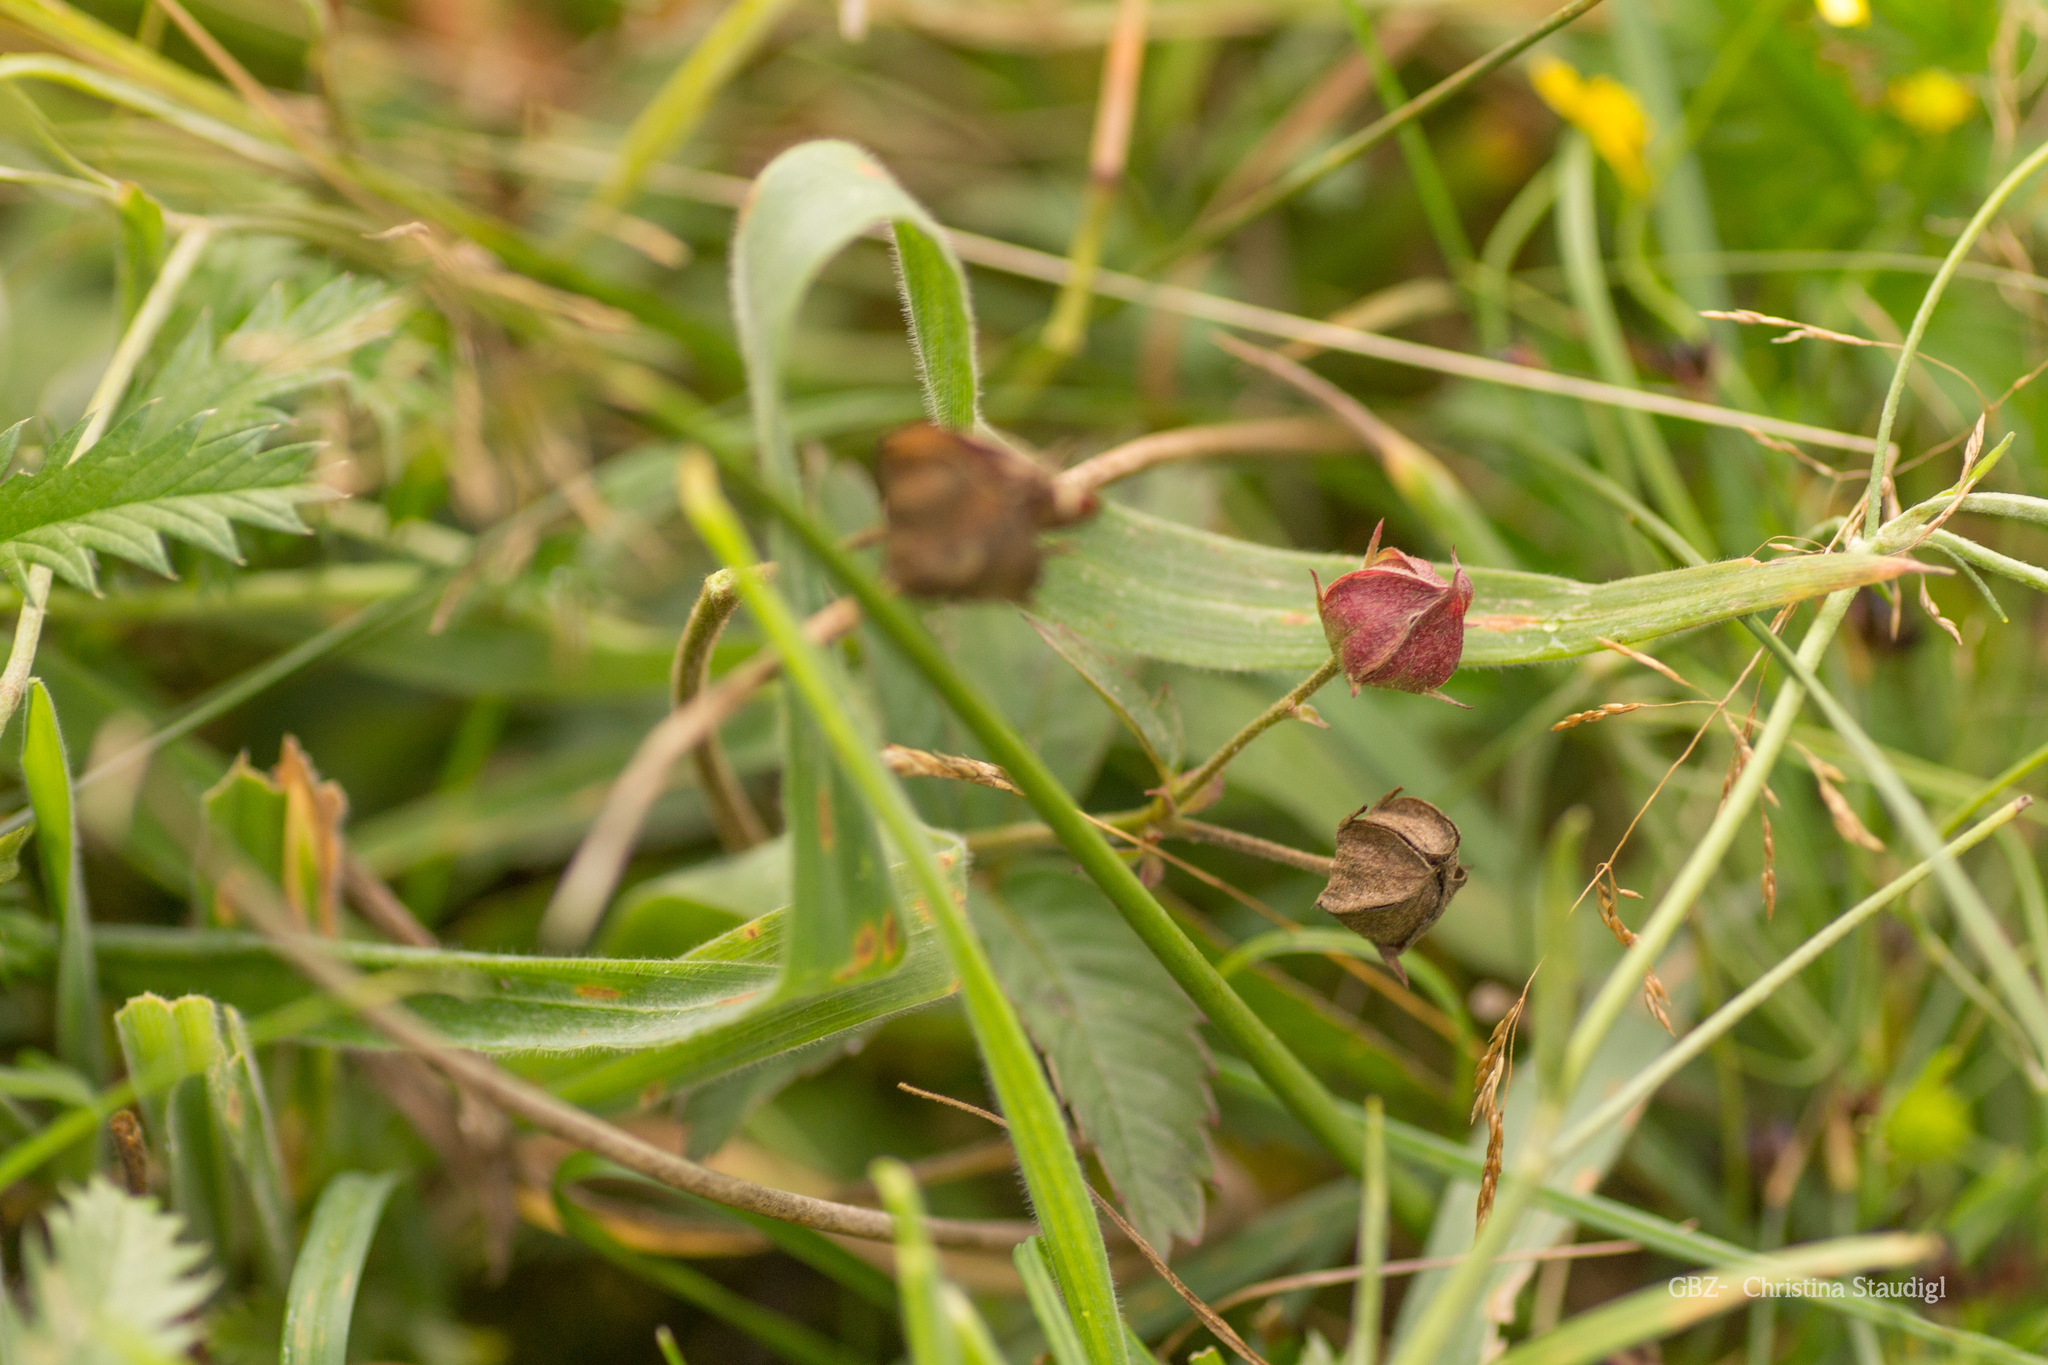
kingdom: Plantae
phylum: Tracheophyta
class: Magnoliopsida
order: Rosales
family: Rosaceae
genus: Comarum
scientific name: Comarum palustre
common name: Marsh cinquefoil
